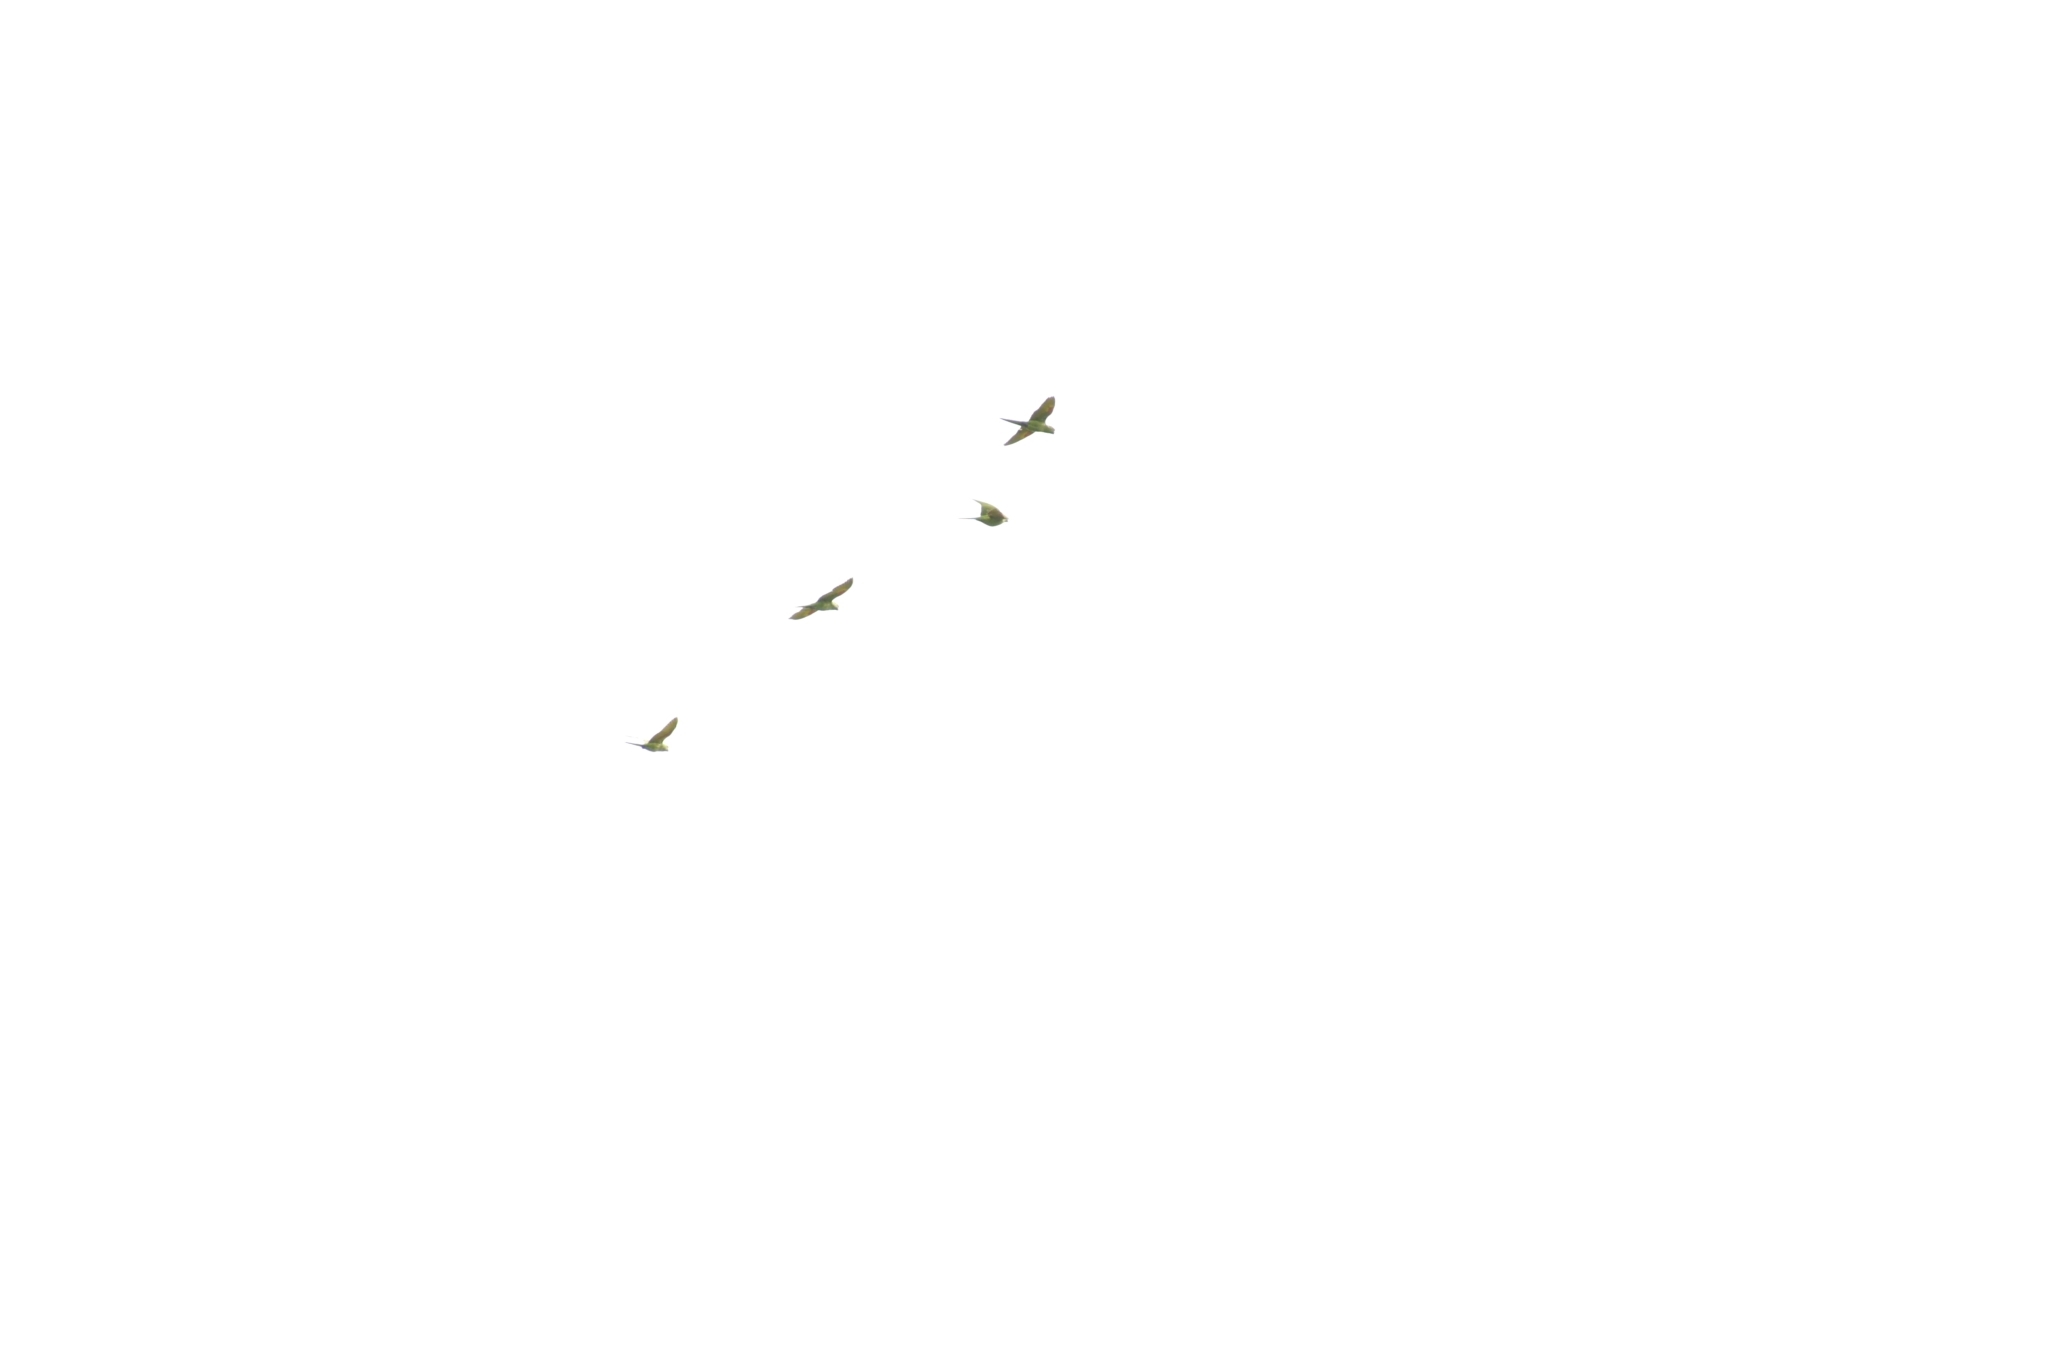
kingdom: Animalia
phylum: Chordata
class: Aves
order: Psittaciformes
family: Psittacidae
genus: Aratinga
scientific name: Aratinga leucophthalma
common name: White-eyed parakeet
